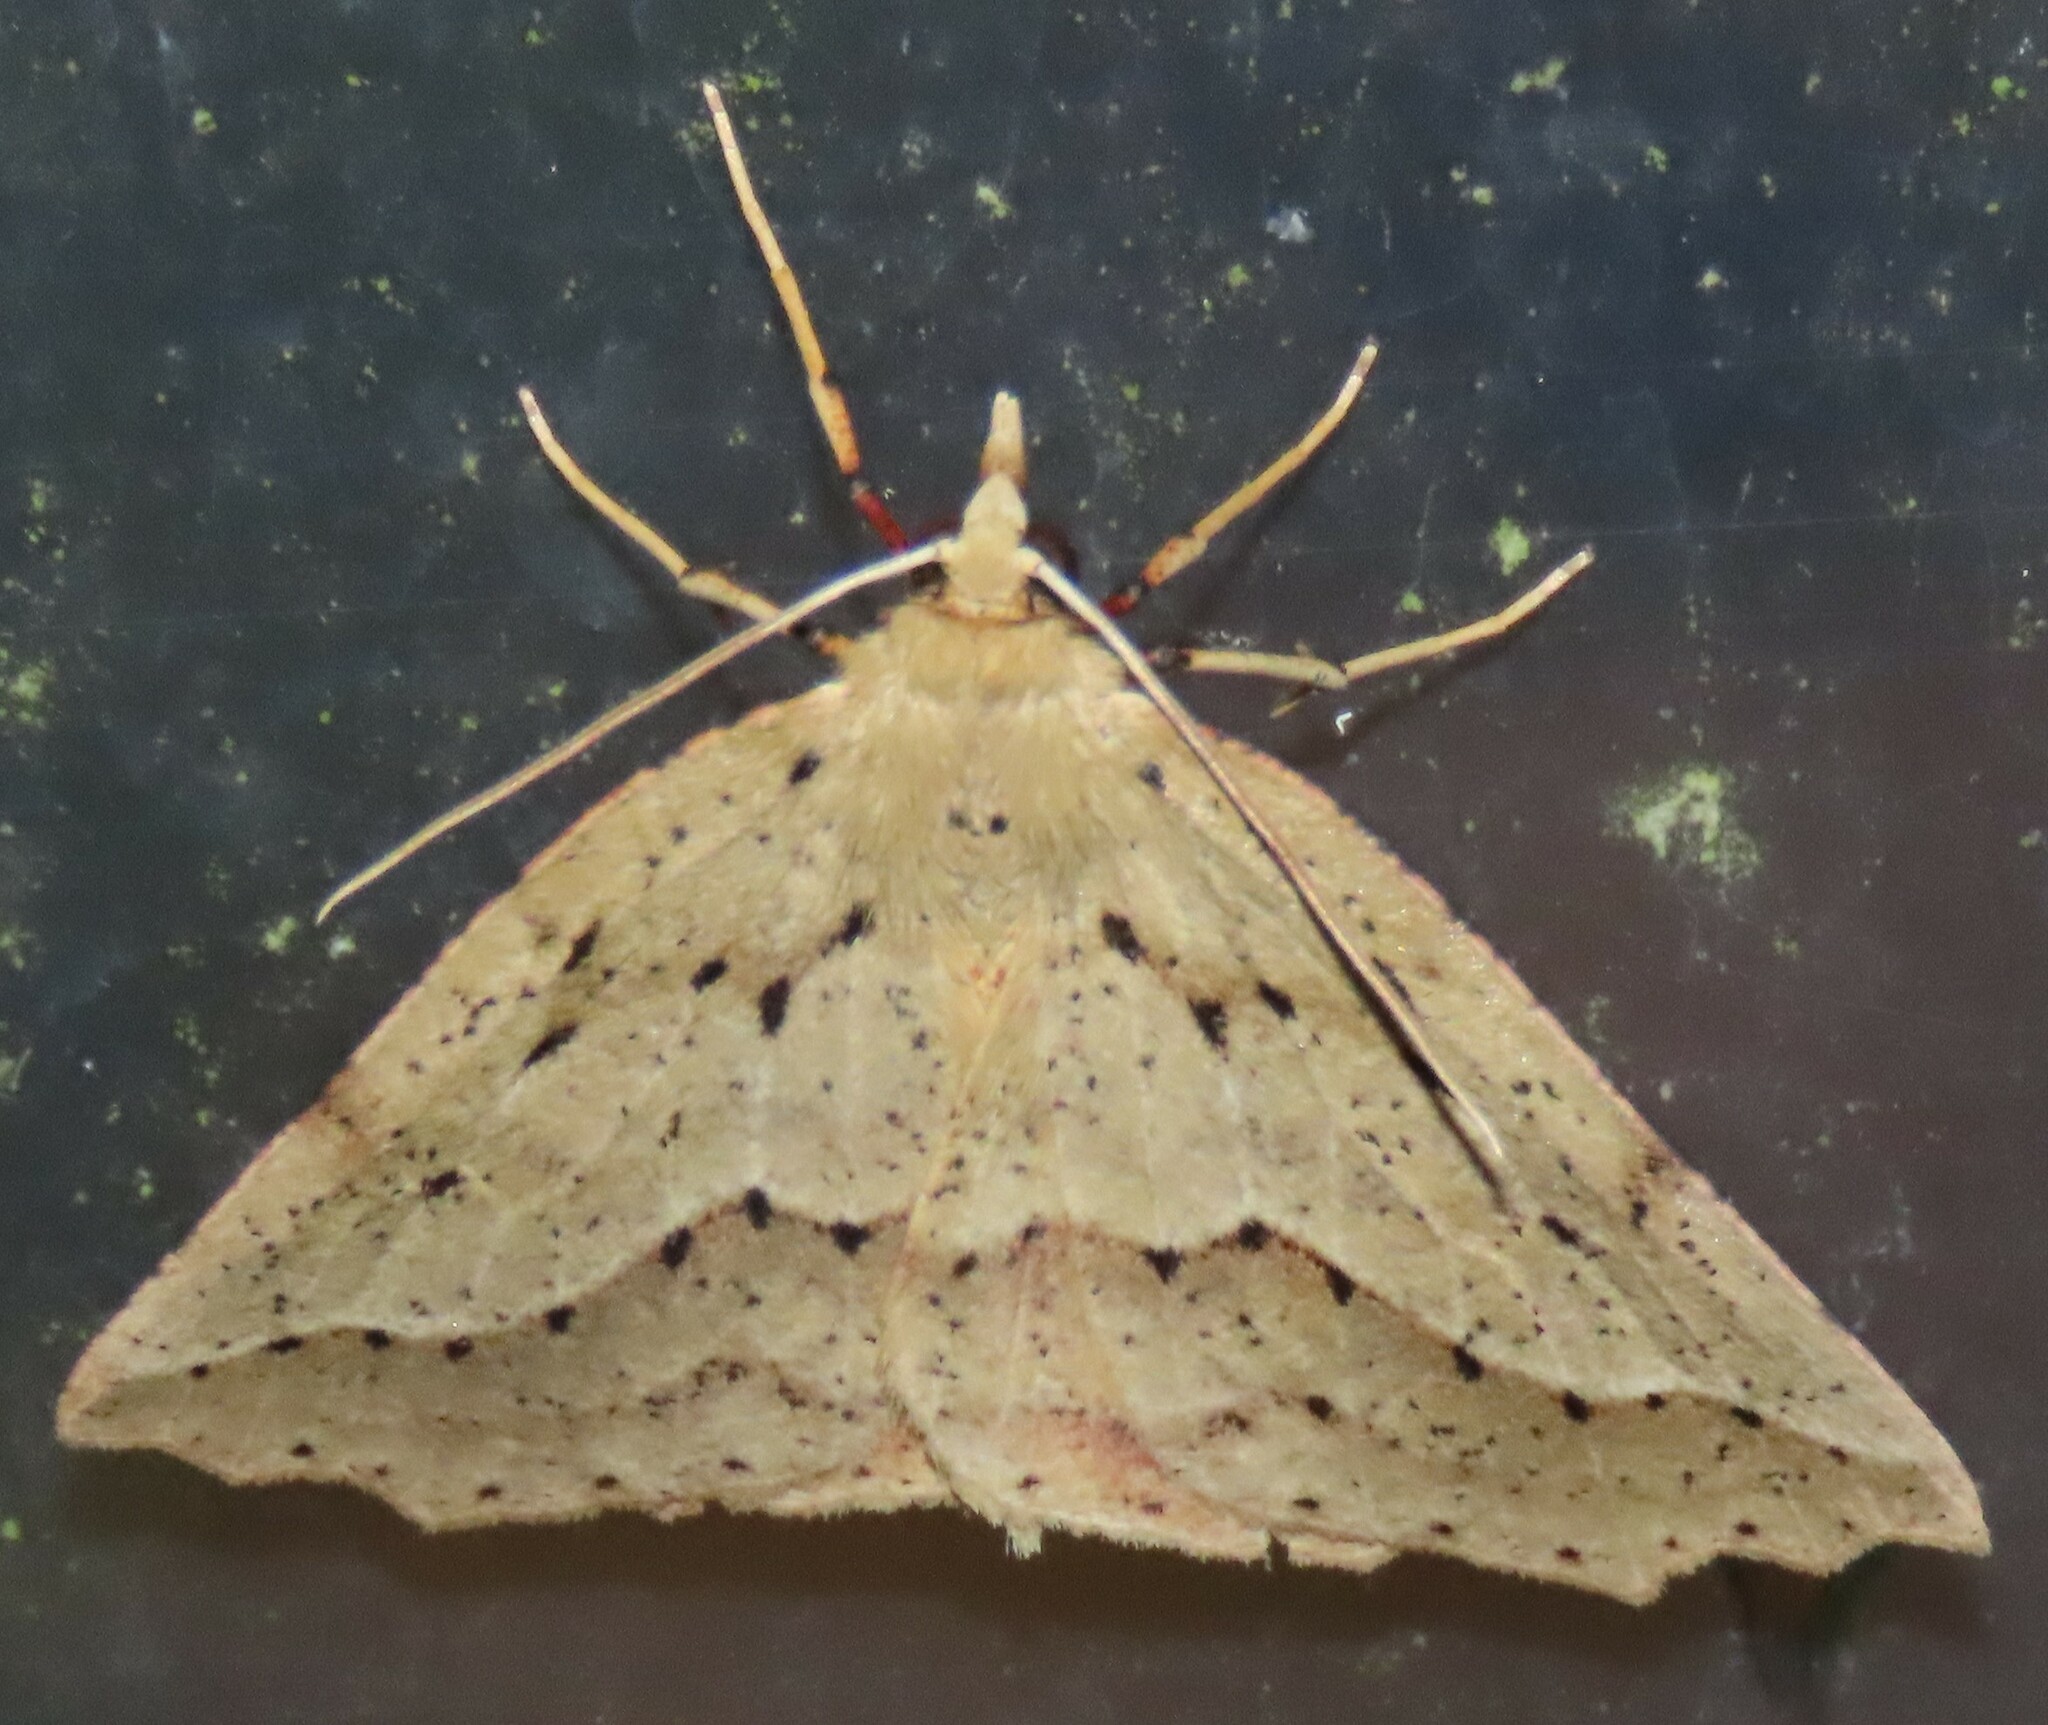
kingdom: Animalia
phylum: Arthropoda
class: Insecta
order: Lepidoptera
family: Geometridae
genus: Ischalis
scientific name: Ischalis variabilis
